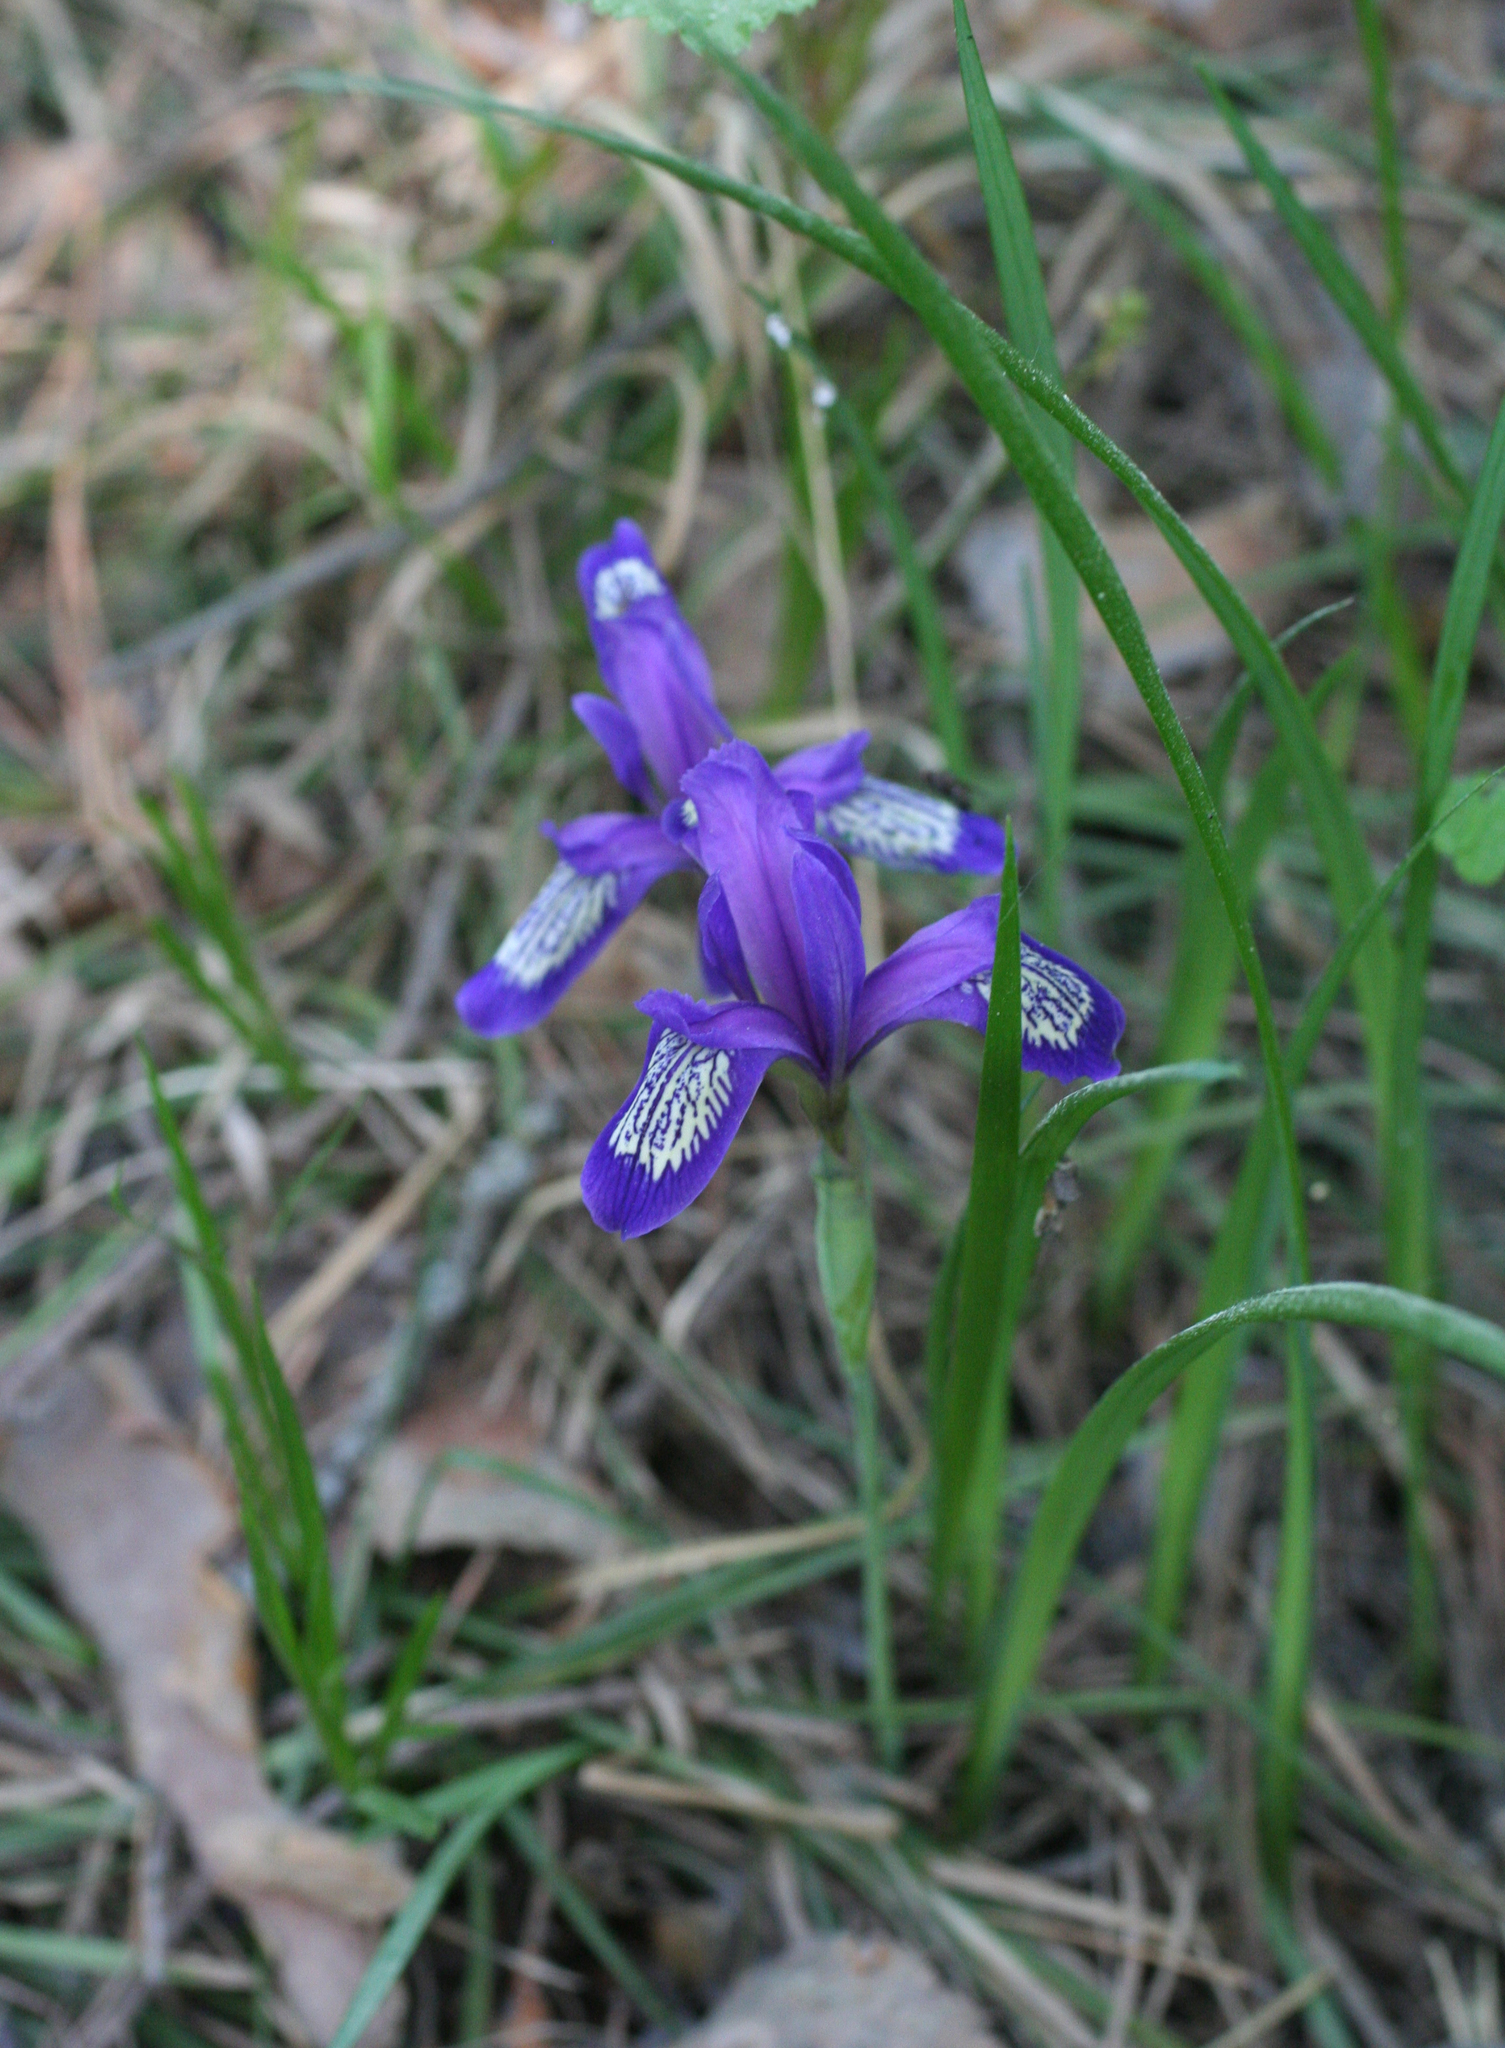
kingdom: Plantae
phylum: Tracheophyta
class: Liliopsida
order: Asparagales
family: Iridaceae
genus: Iris
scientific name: Iris ruthenica
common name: Purple-bract iris
